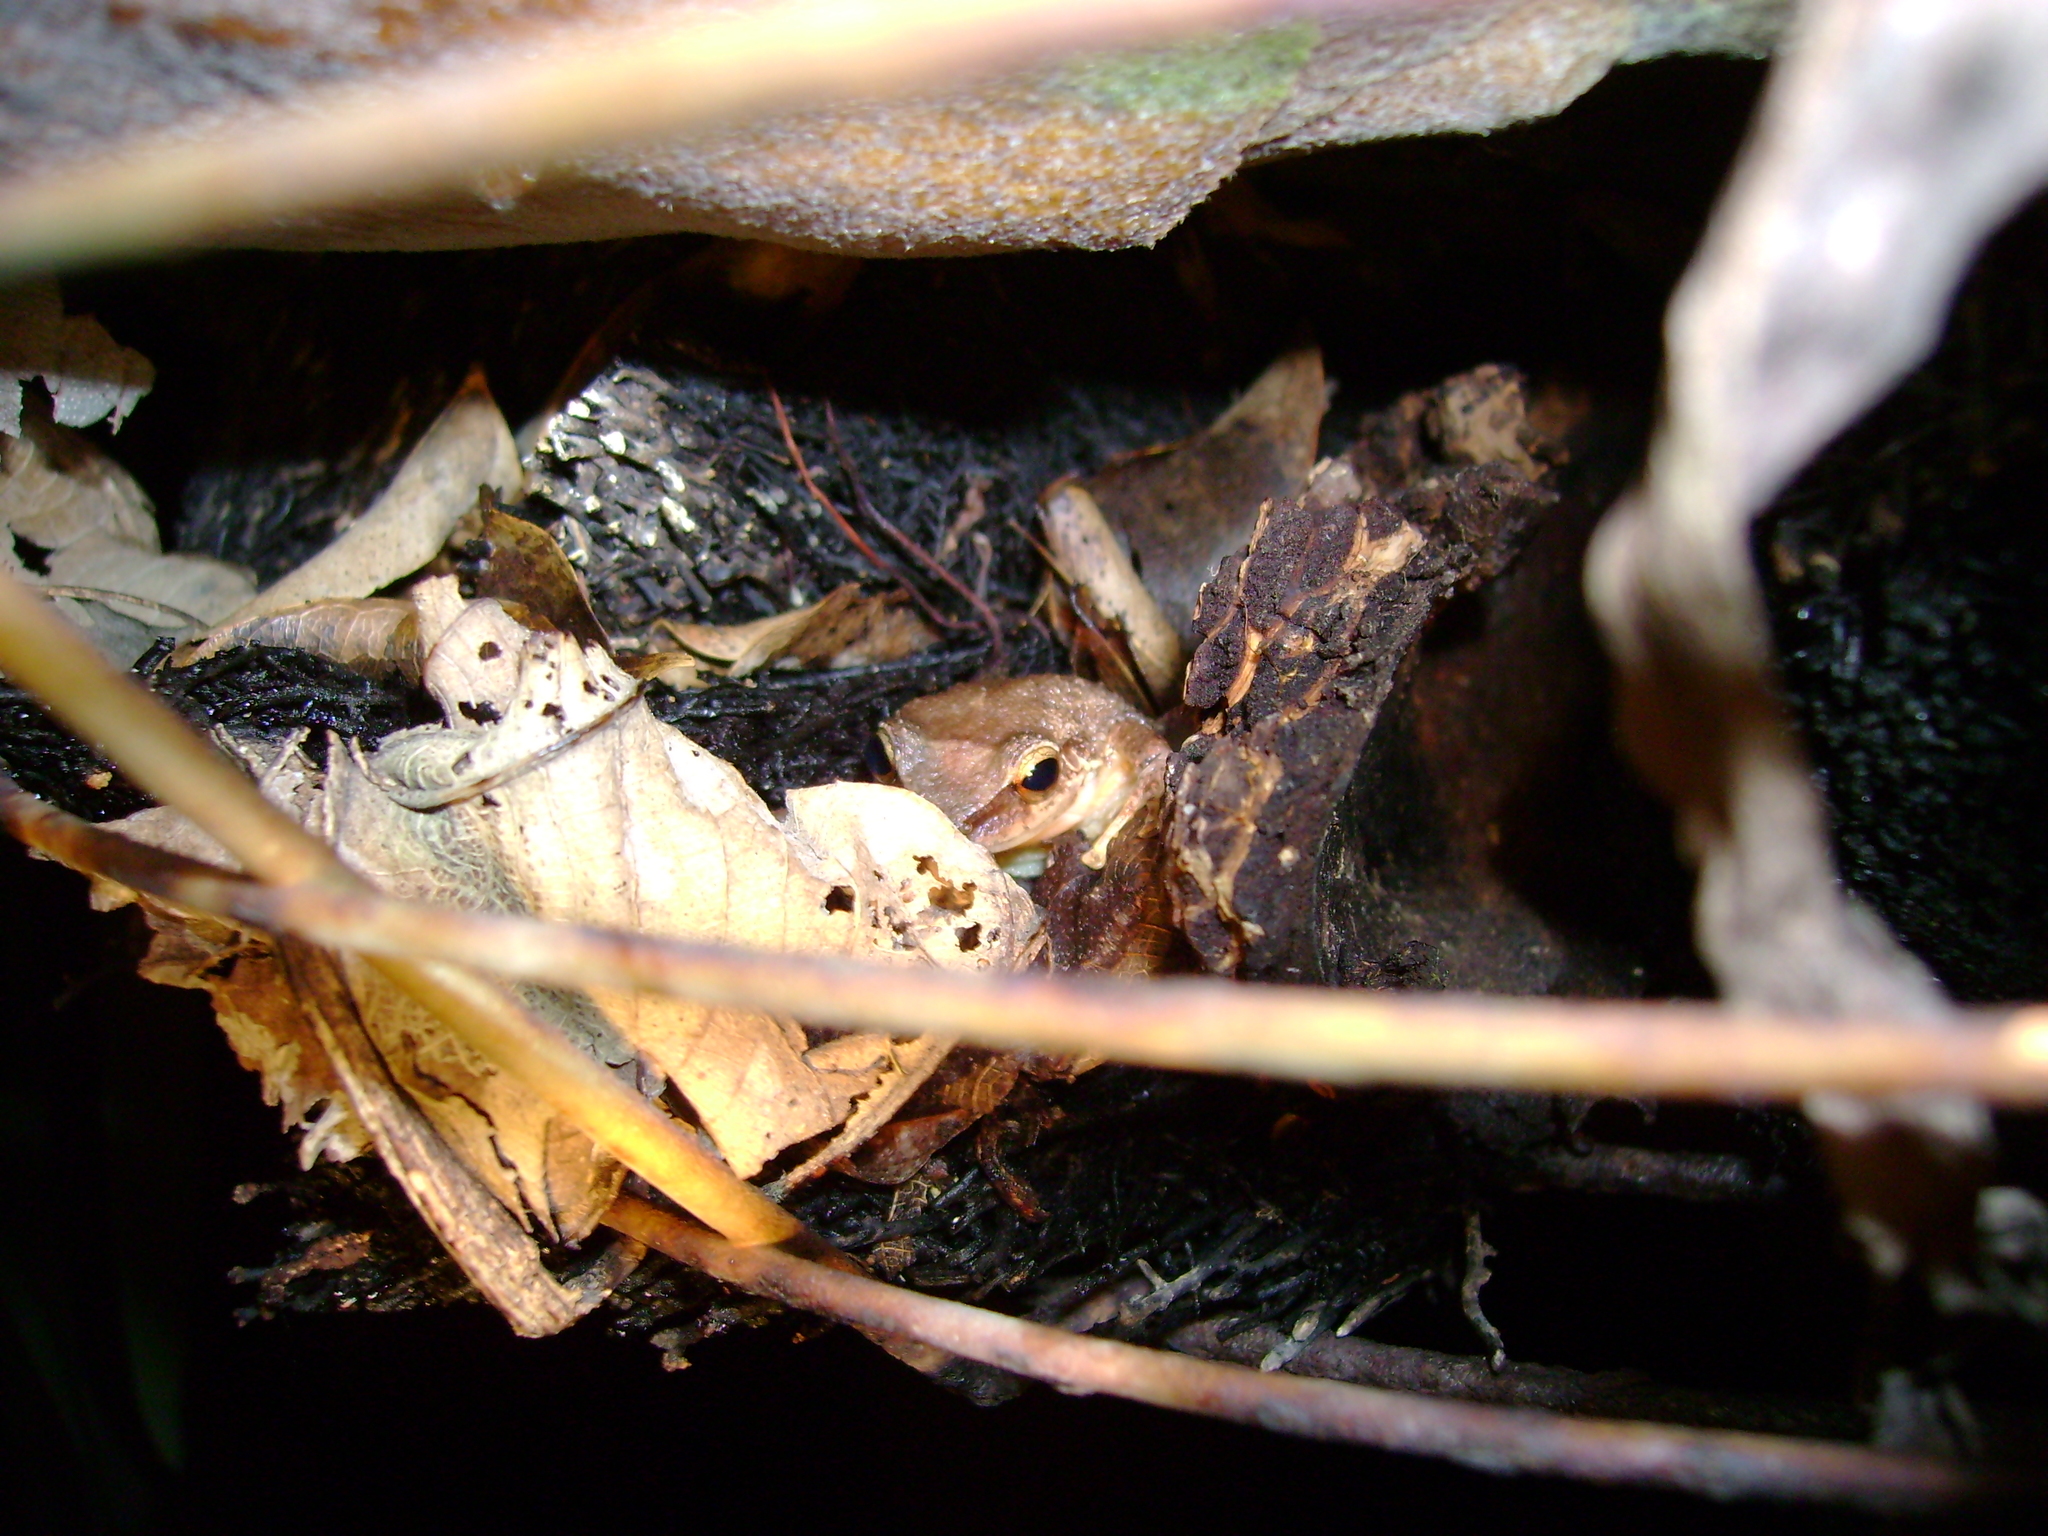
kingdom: Animalia
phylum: Chordata
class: Amphibia
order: Anura
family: Eleutherodactylidae
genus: Eleutherodactylus
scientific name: Eleutherodactylus coqui
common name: Coqui frog
